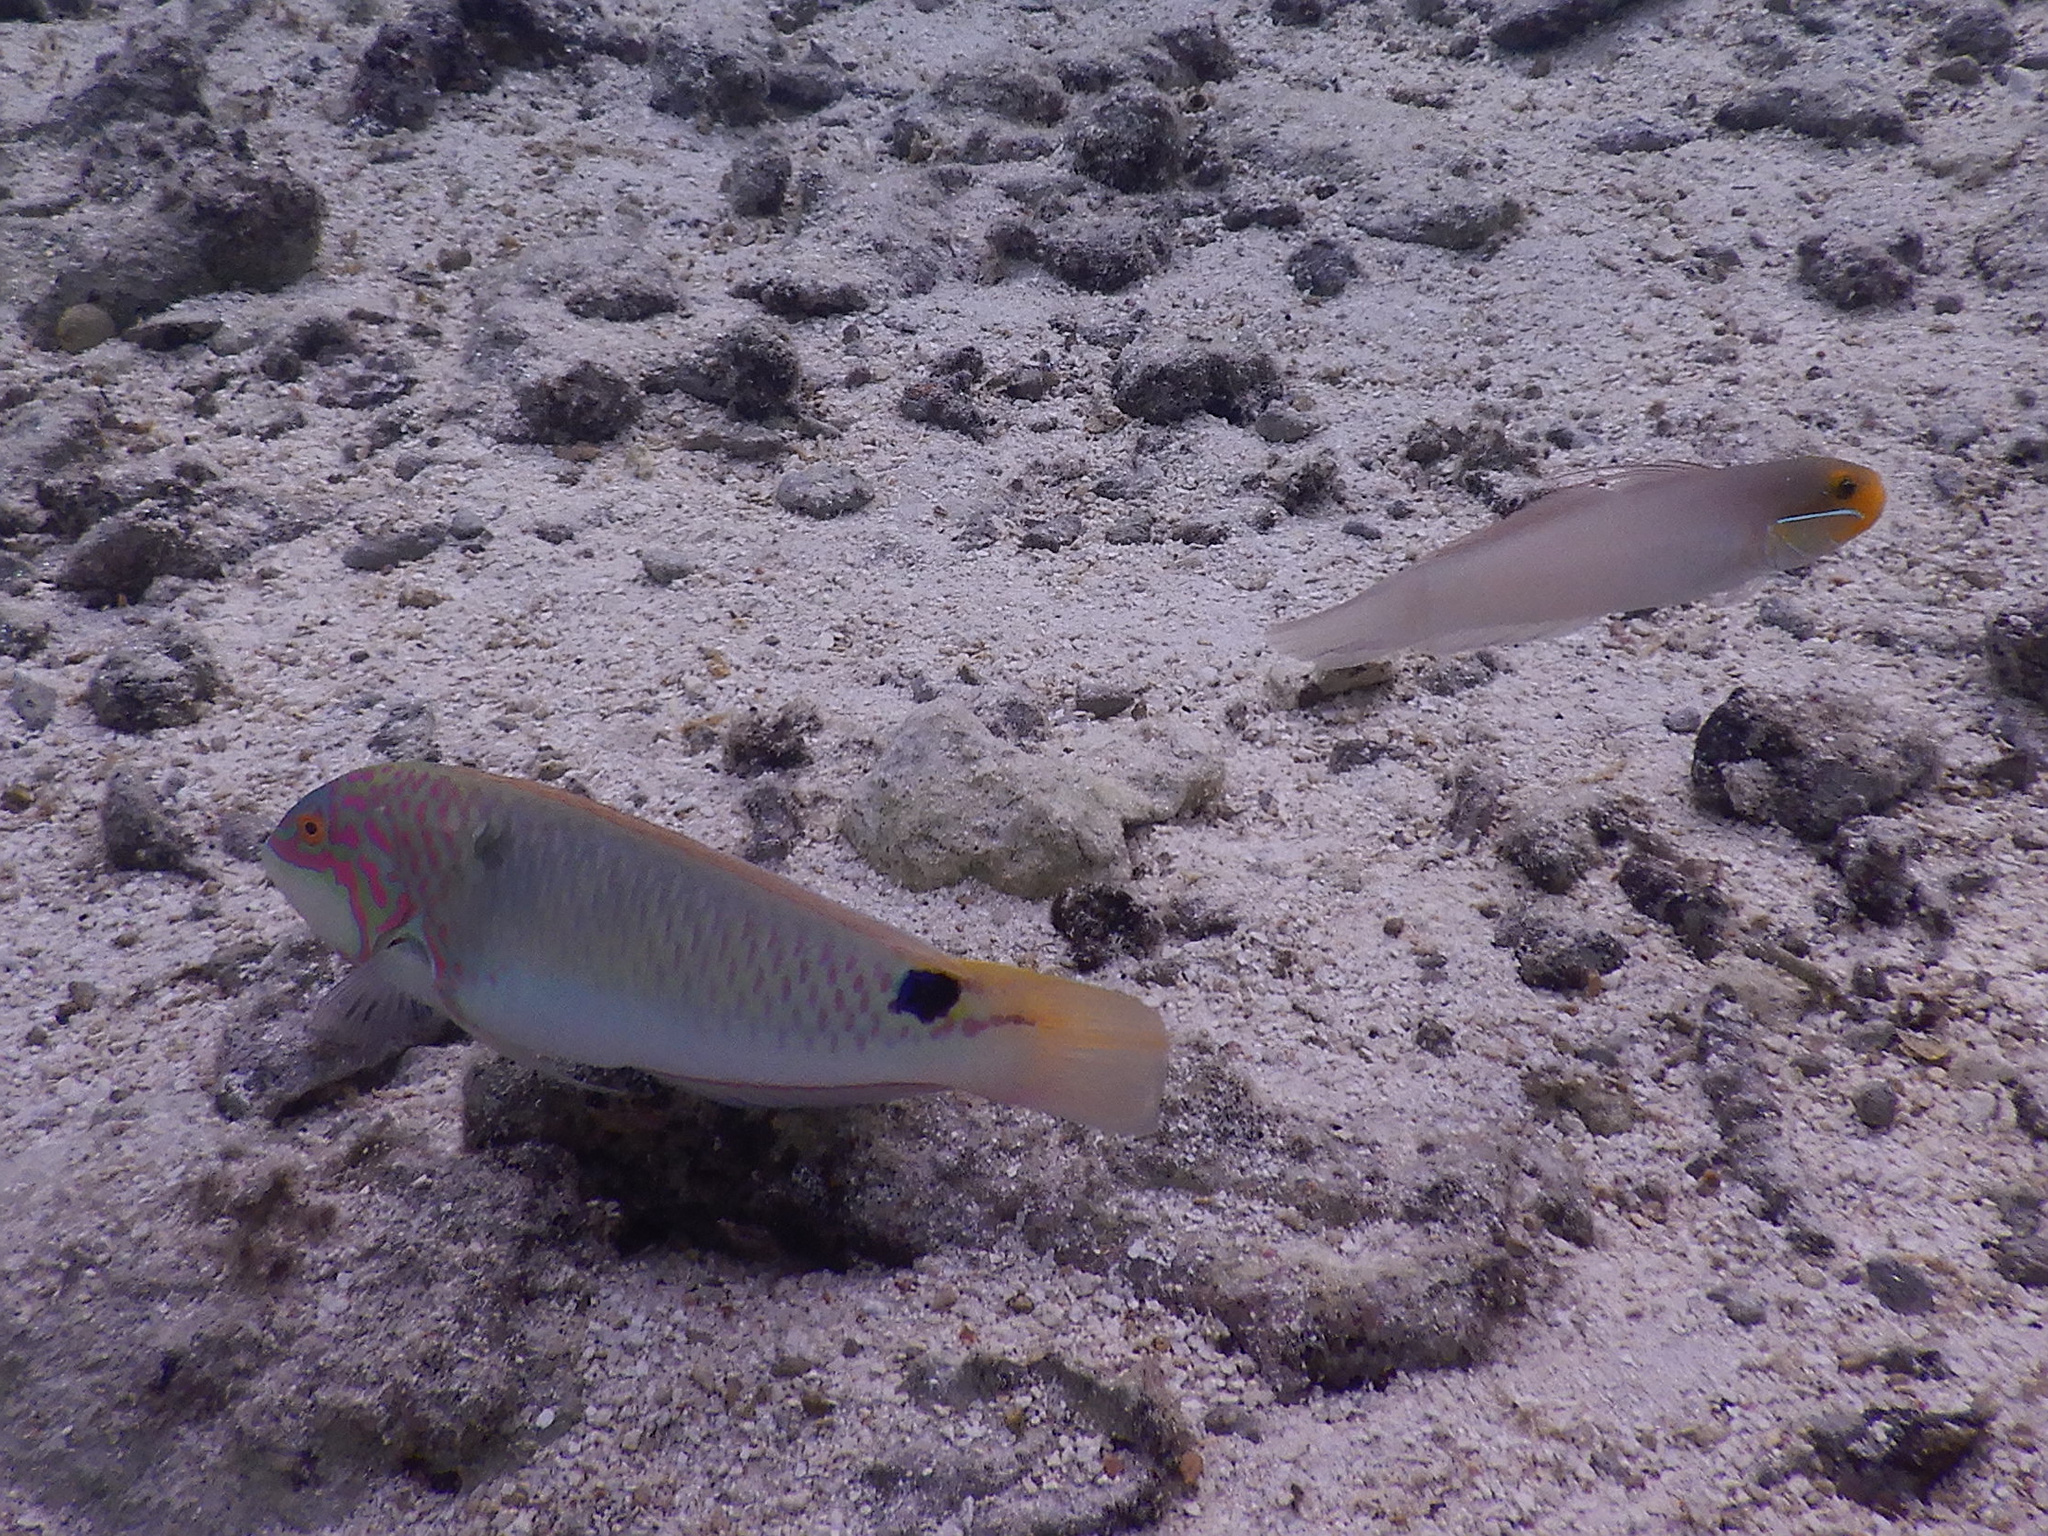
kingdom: Animalia
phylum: Chordata
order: Perciformes
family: Labridae
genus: Halichoeres
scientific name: Halichoeres trimaculatus
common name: Three-spot wrasse
